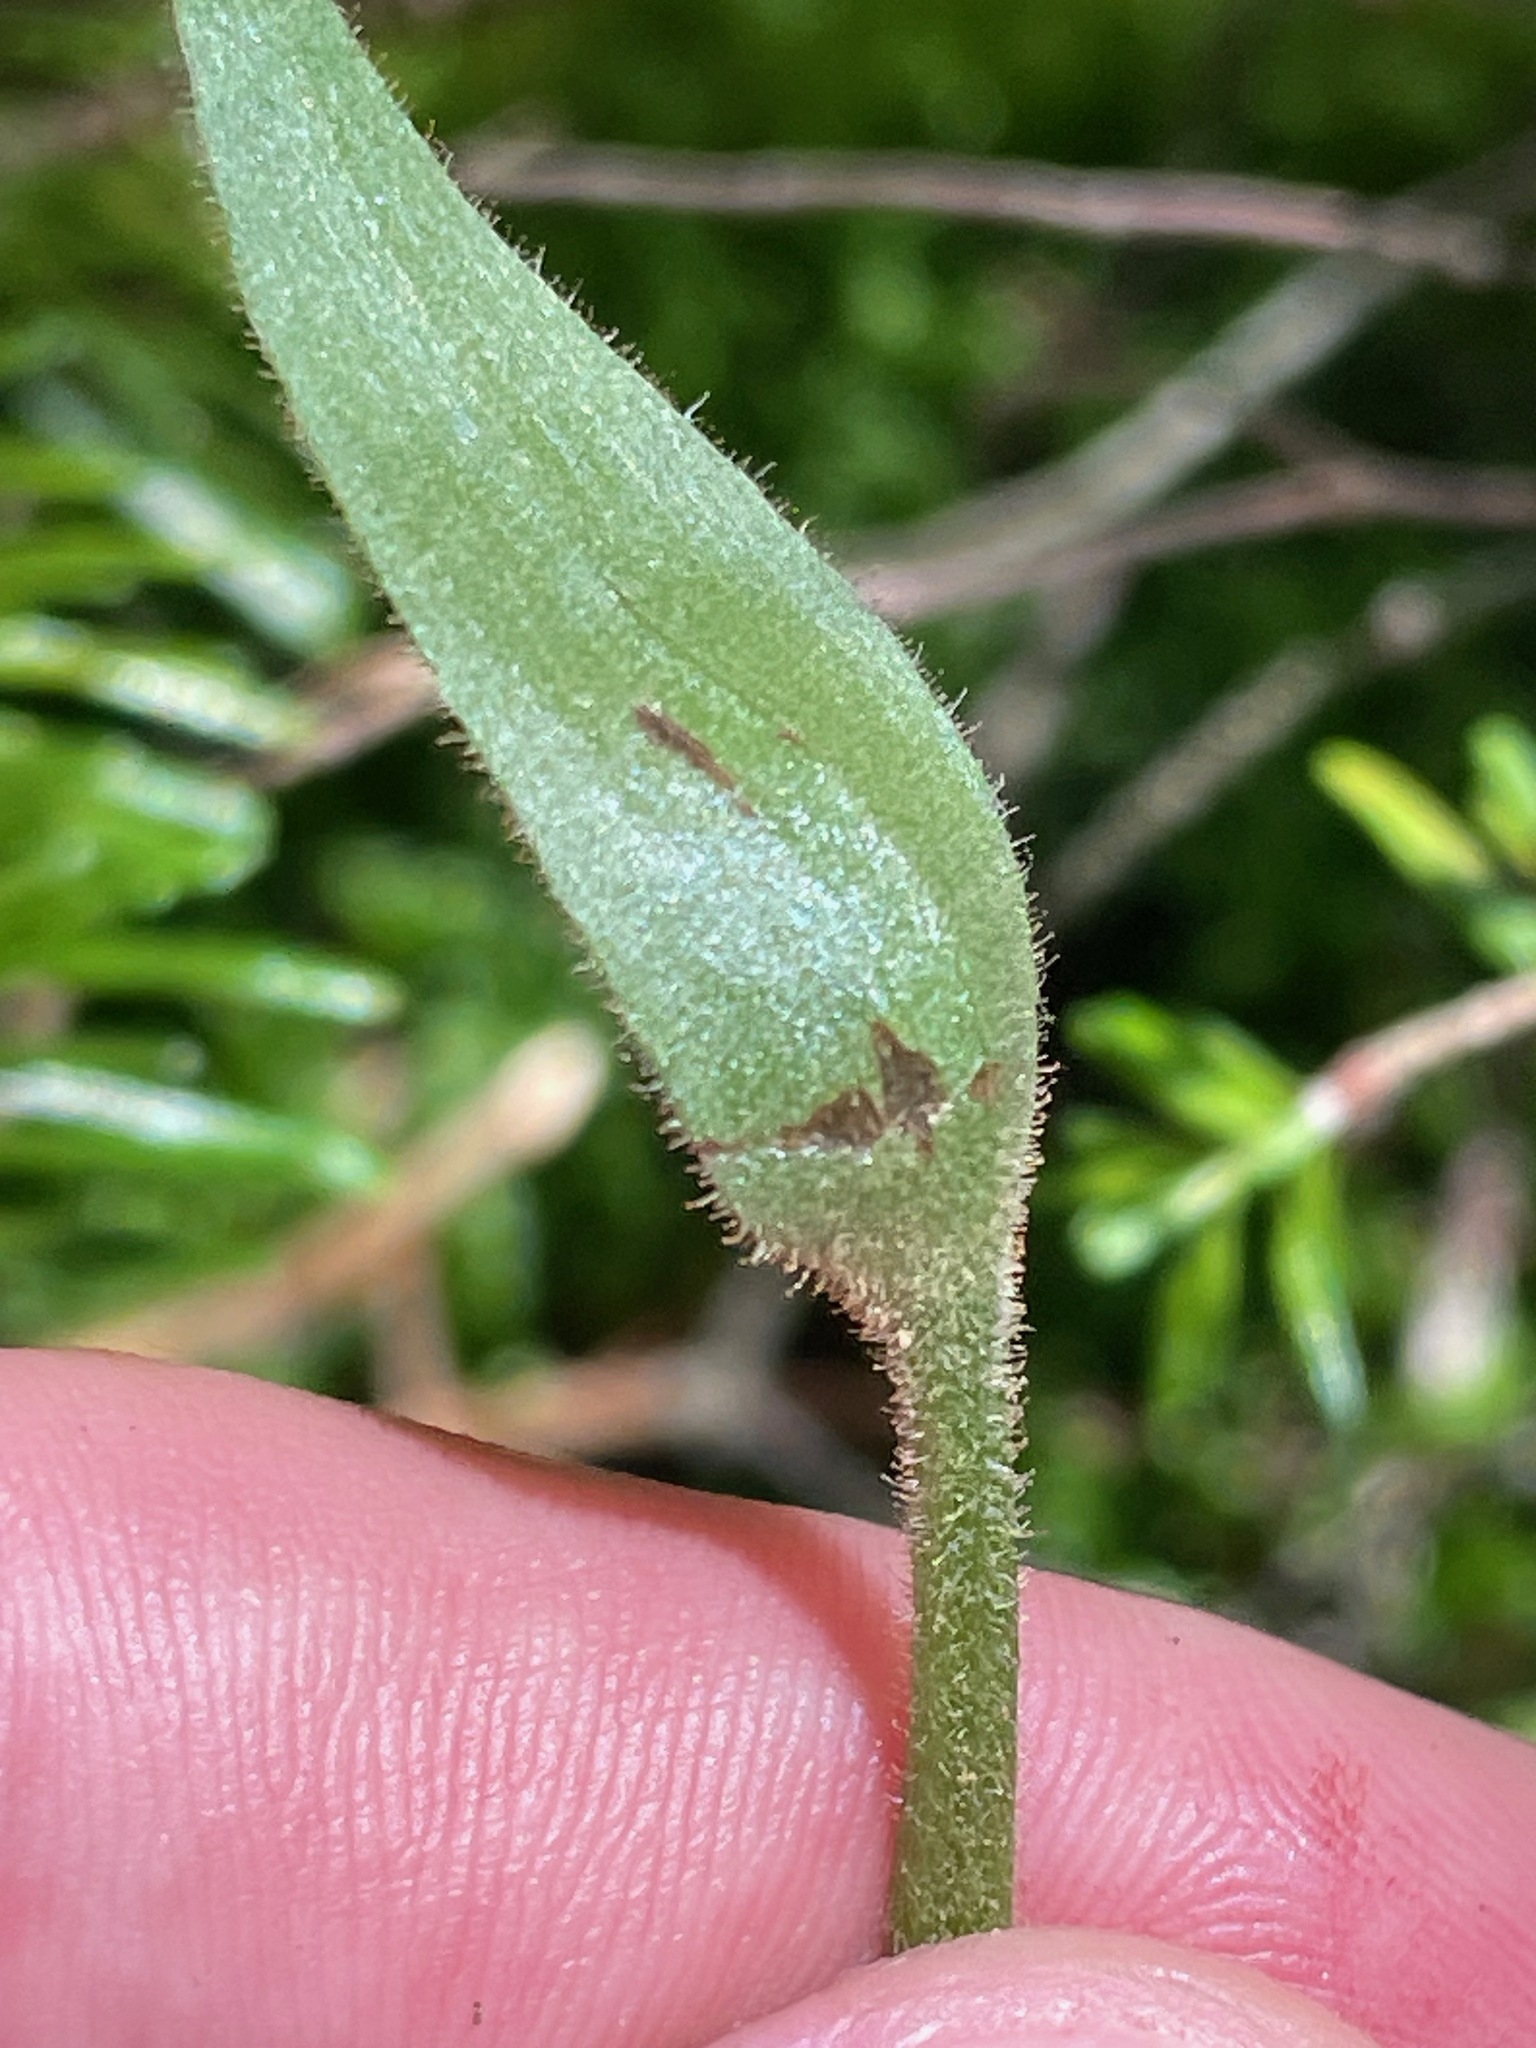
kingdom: Plantae
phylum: Tracheophyta
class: Liliopsida
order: Asparagales
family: Orchidaceae
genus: Cypripedium
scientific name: Cypripedium acaule
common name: Pink lady's-slipper
